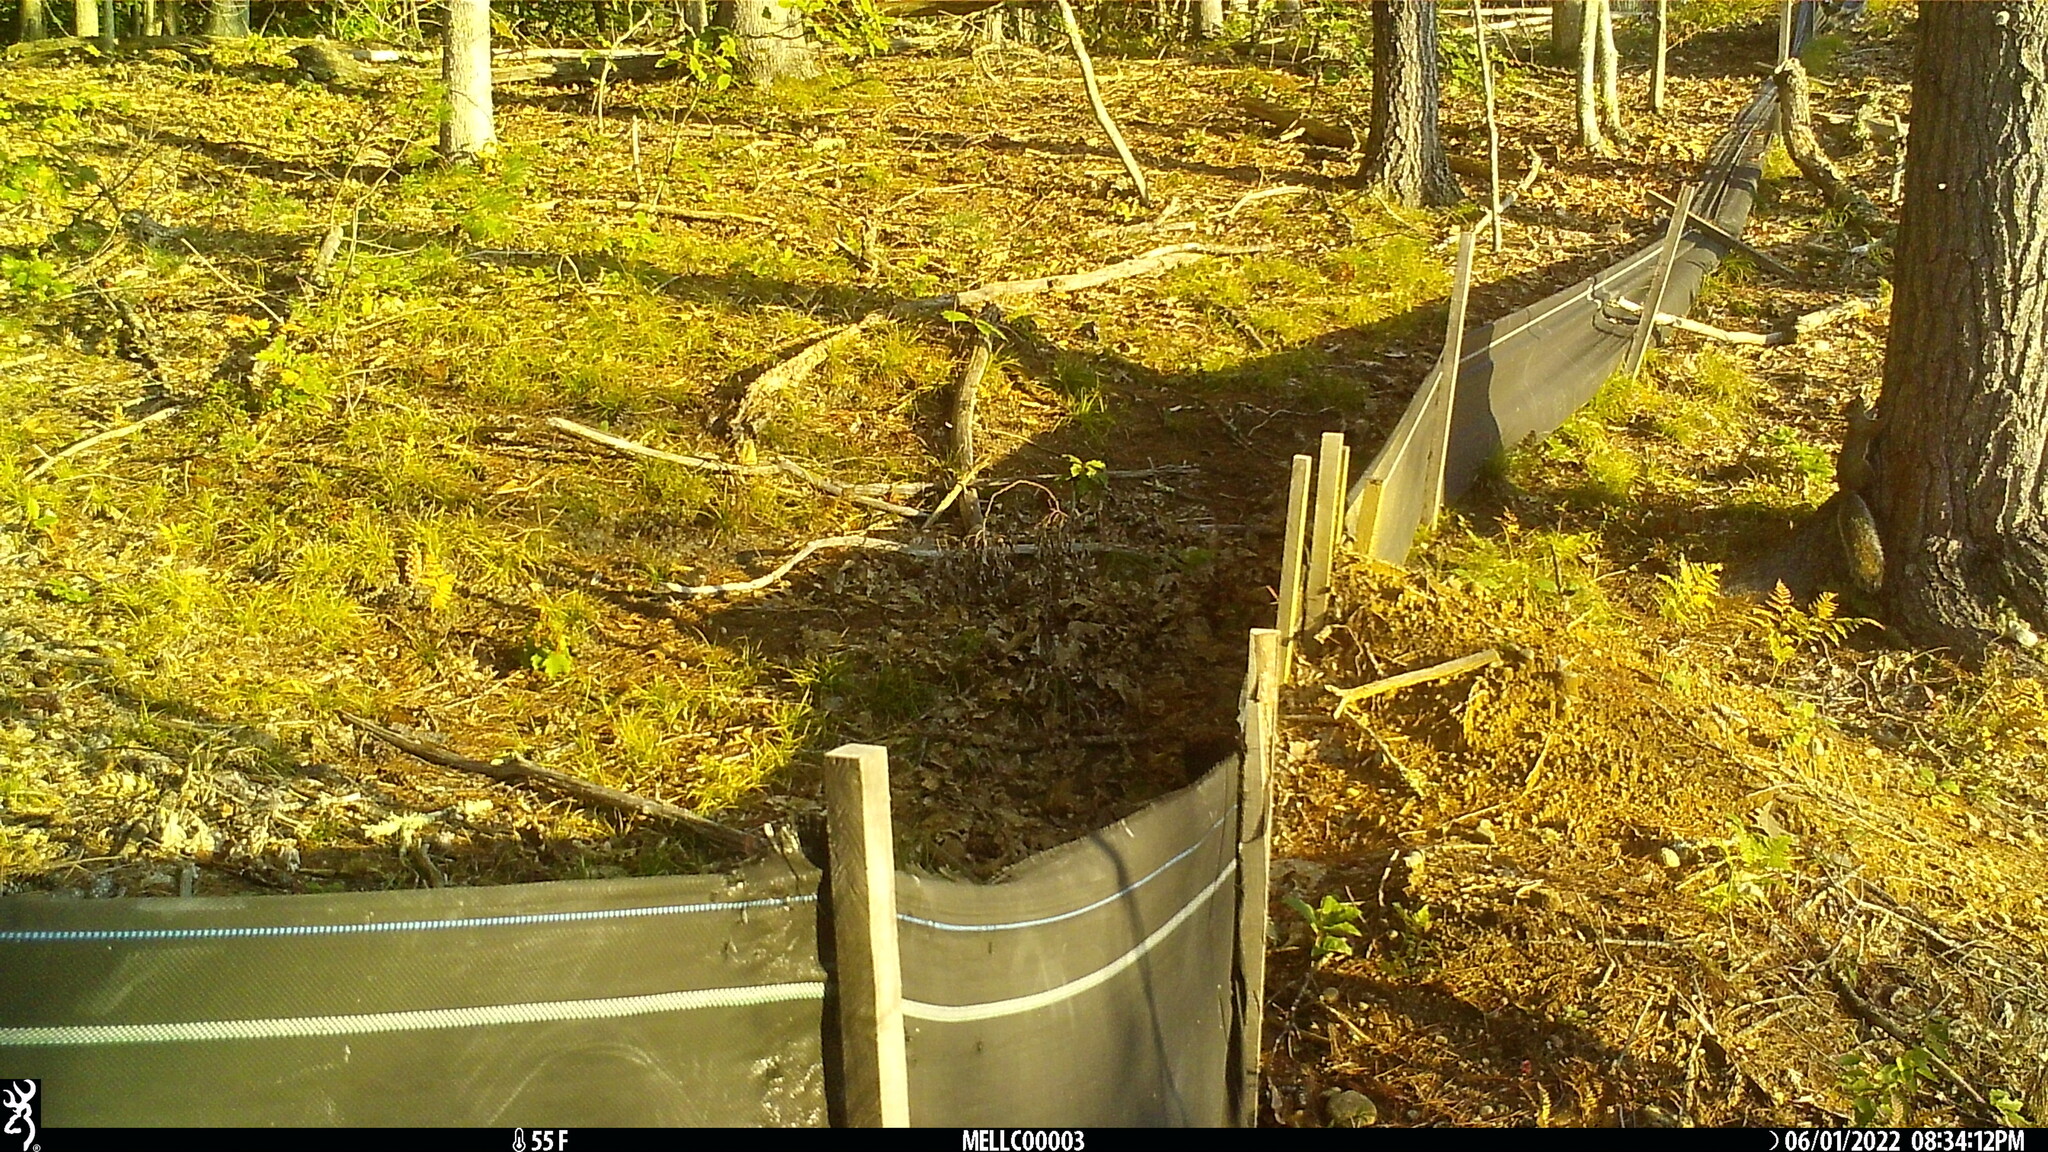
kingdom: Animalia
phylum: Chordata
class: Mammalia
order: Rodentia
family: Sciuridae
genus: Sciurus
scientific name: Sciurus carolinensis
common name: Eastern gray squirrel
